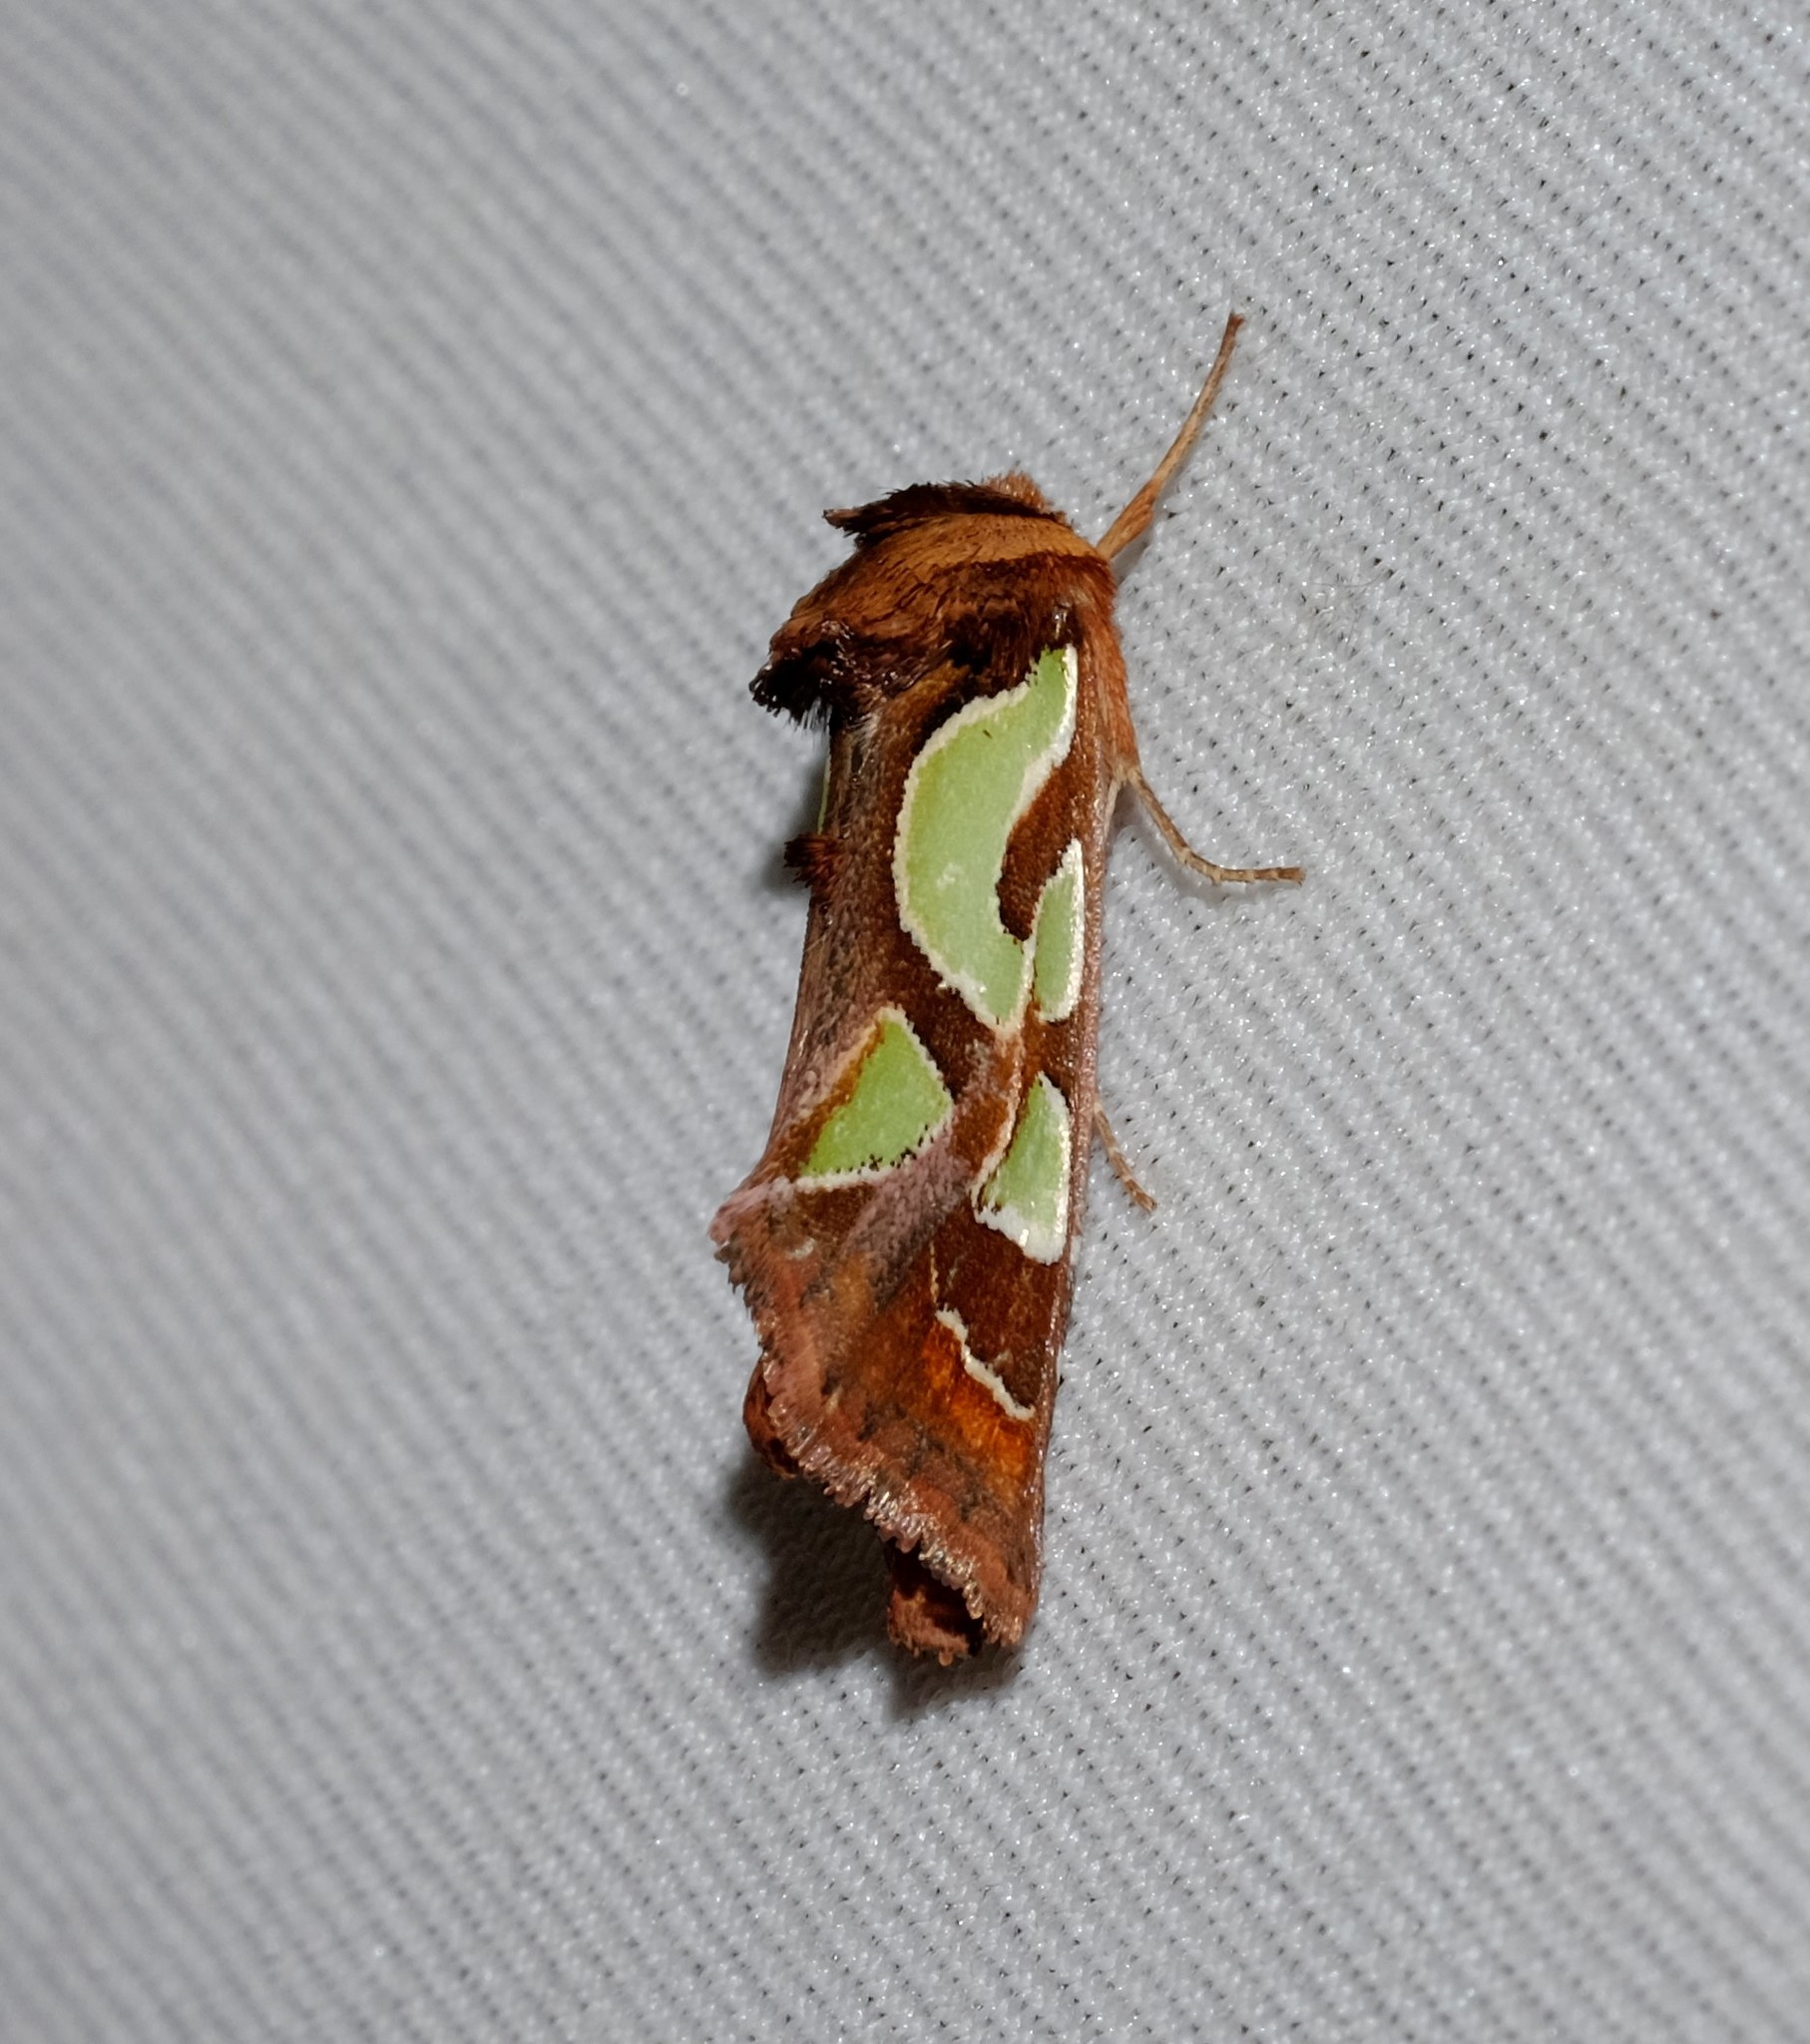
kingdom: Animalia
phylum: Arthropoda
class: Insecta
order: Lepidoptera
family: Noctuidae
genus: Cosmodes
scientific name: Cosmodes elegans
